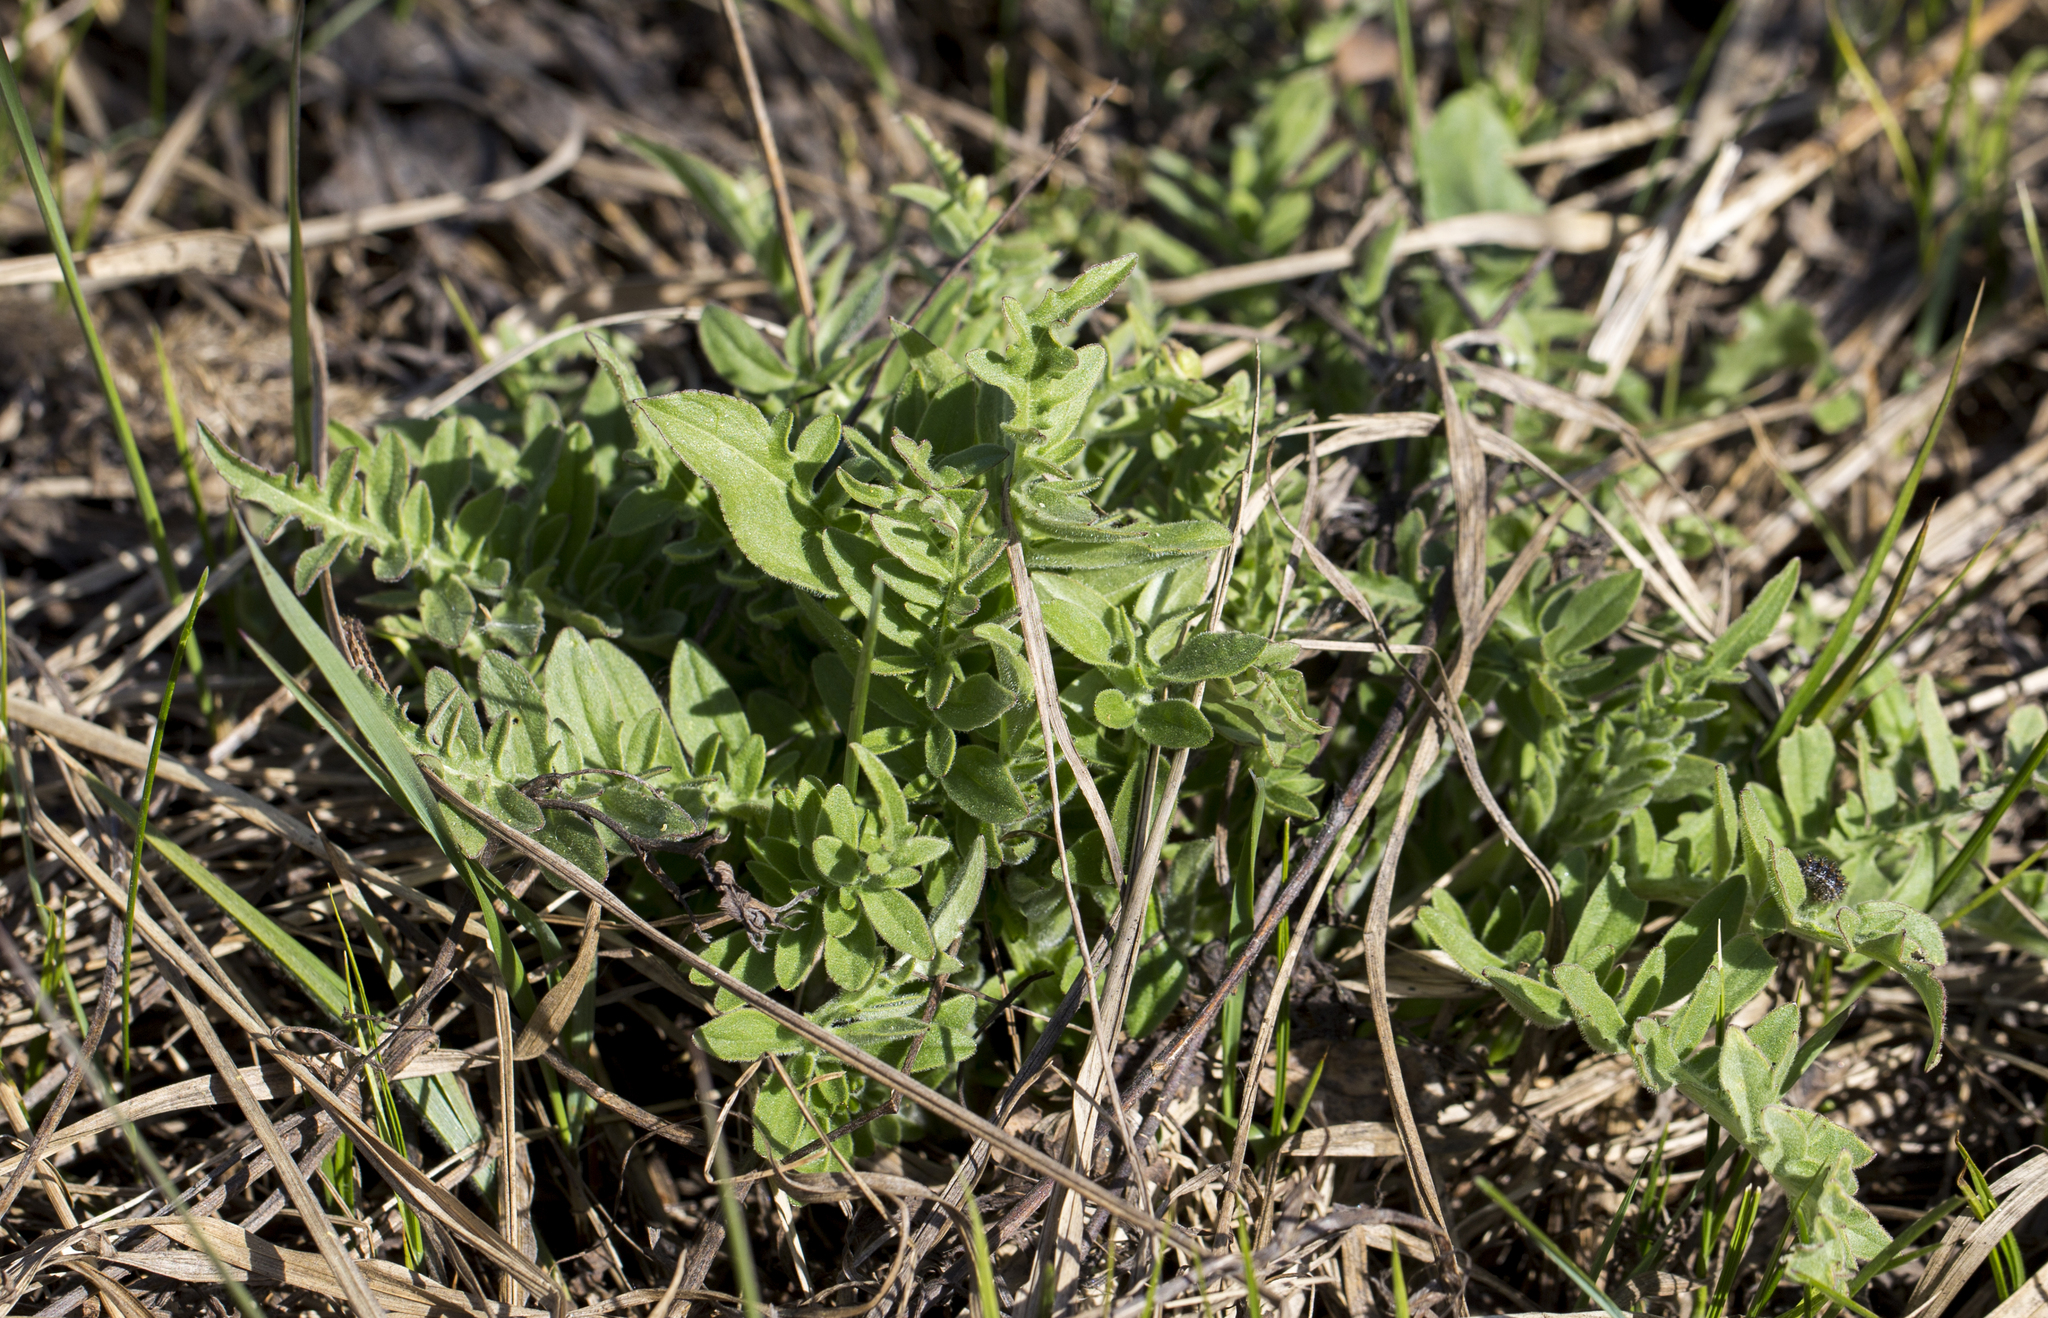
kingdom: Plantae
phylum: Tracheophyta
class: Magnoliopsida
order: Asterales
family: Asteraceae
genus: Centaurea
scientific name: Centaurea scabiosa
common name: Greater knapweed
